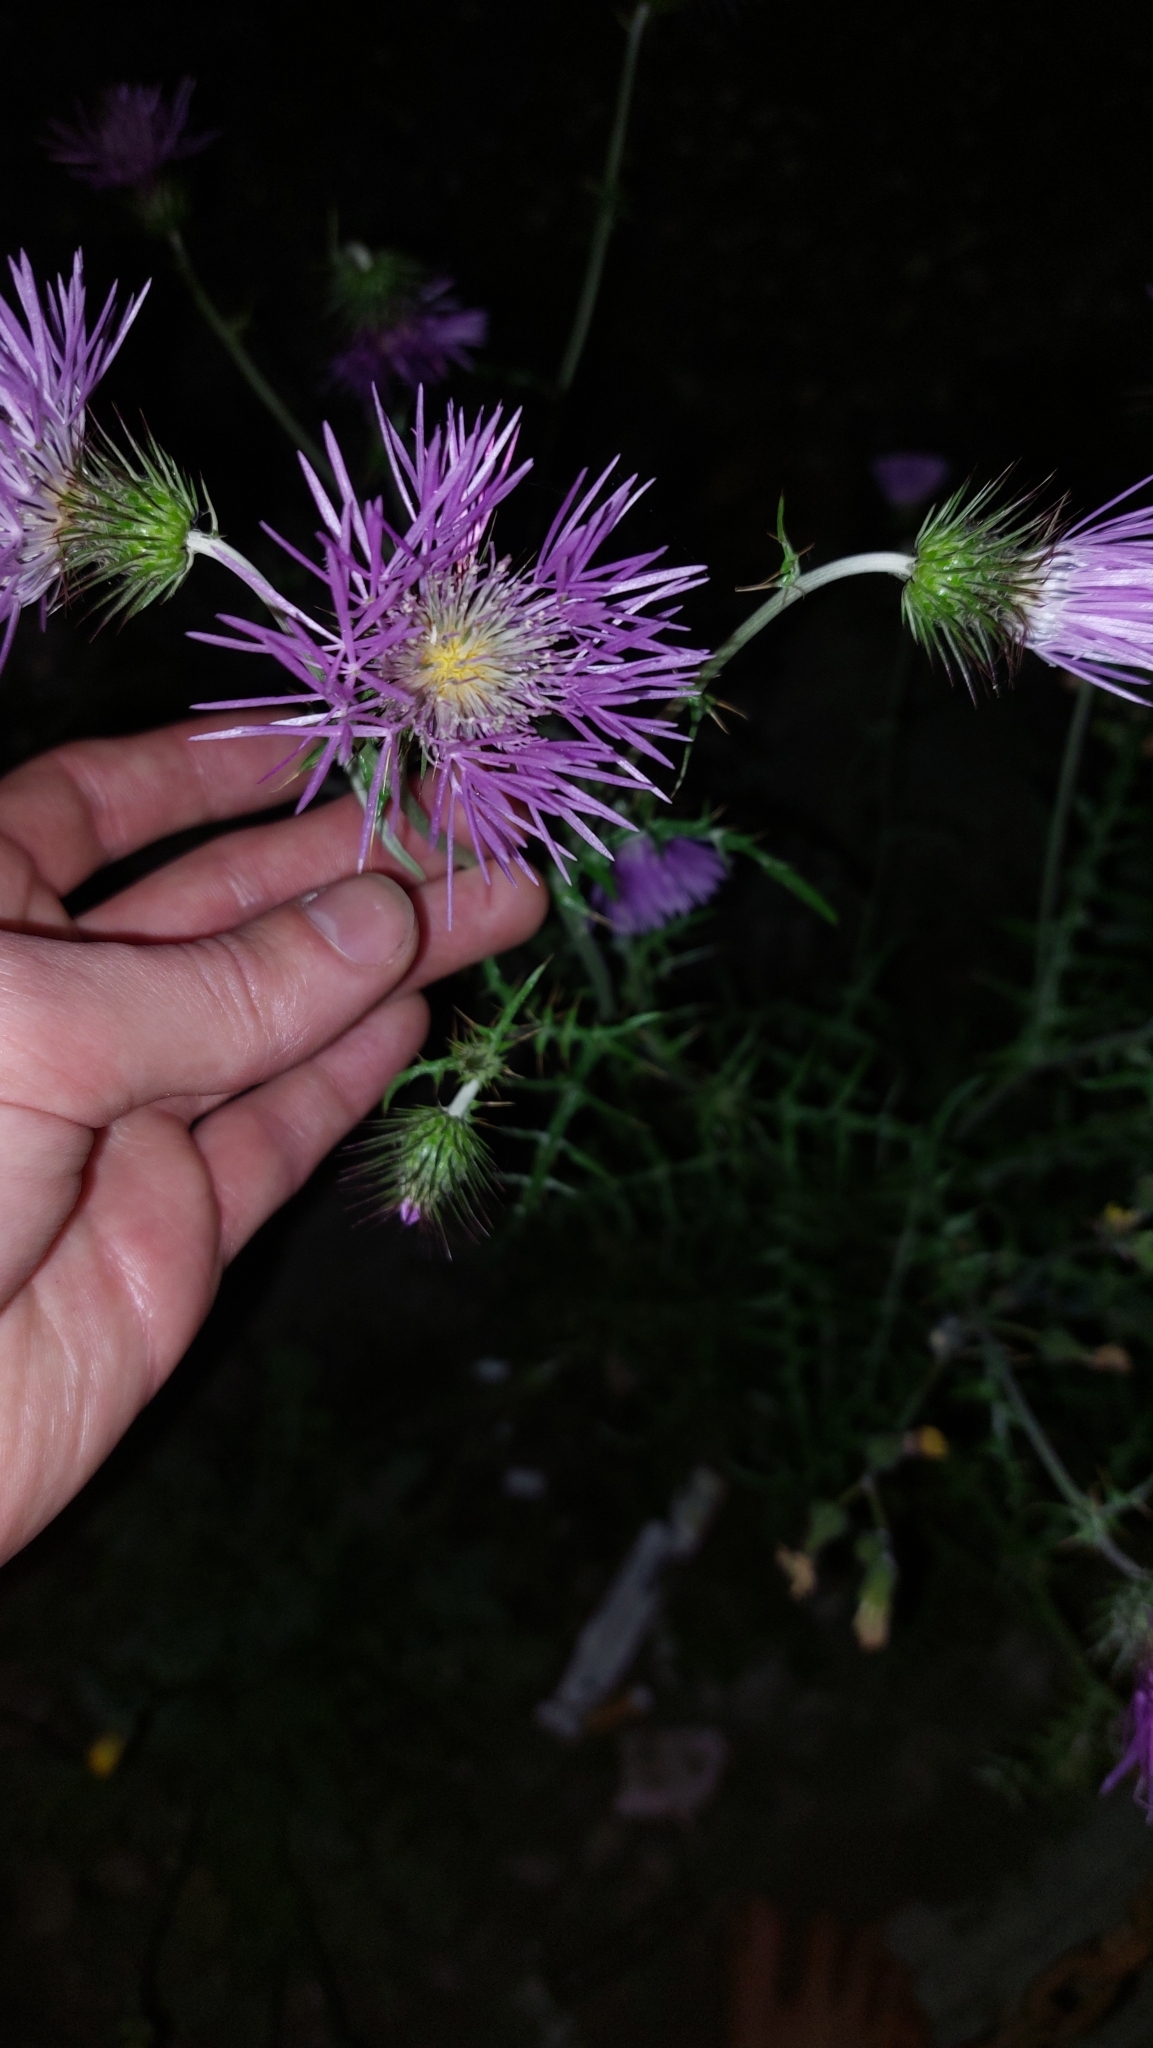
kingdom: Plantae
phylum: Tracheophyta
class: Magnoliopsida
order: Asterales
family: Asteraceae
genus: Galactites
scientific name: Galactites tomentosa
